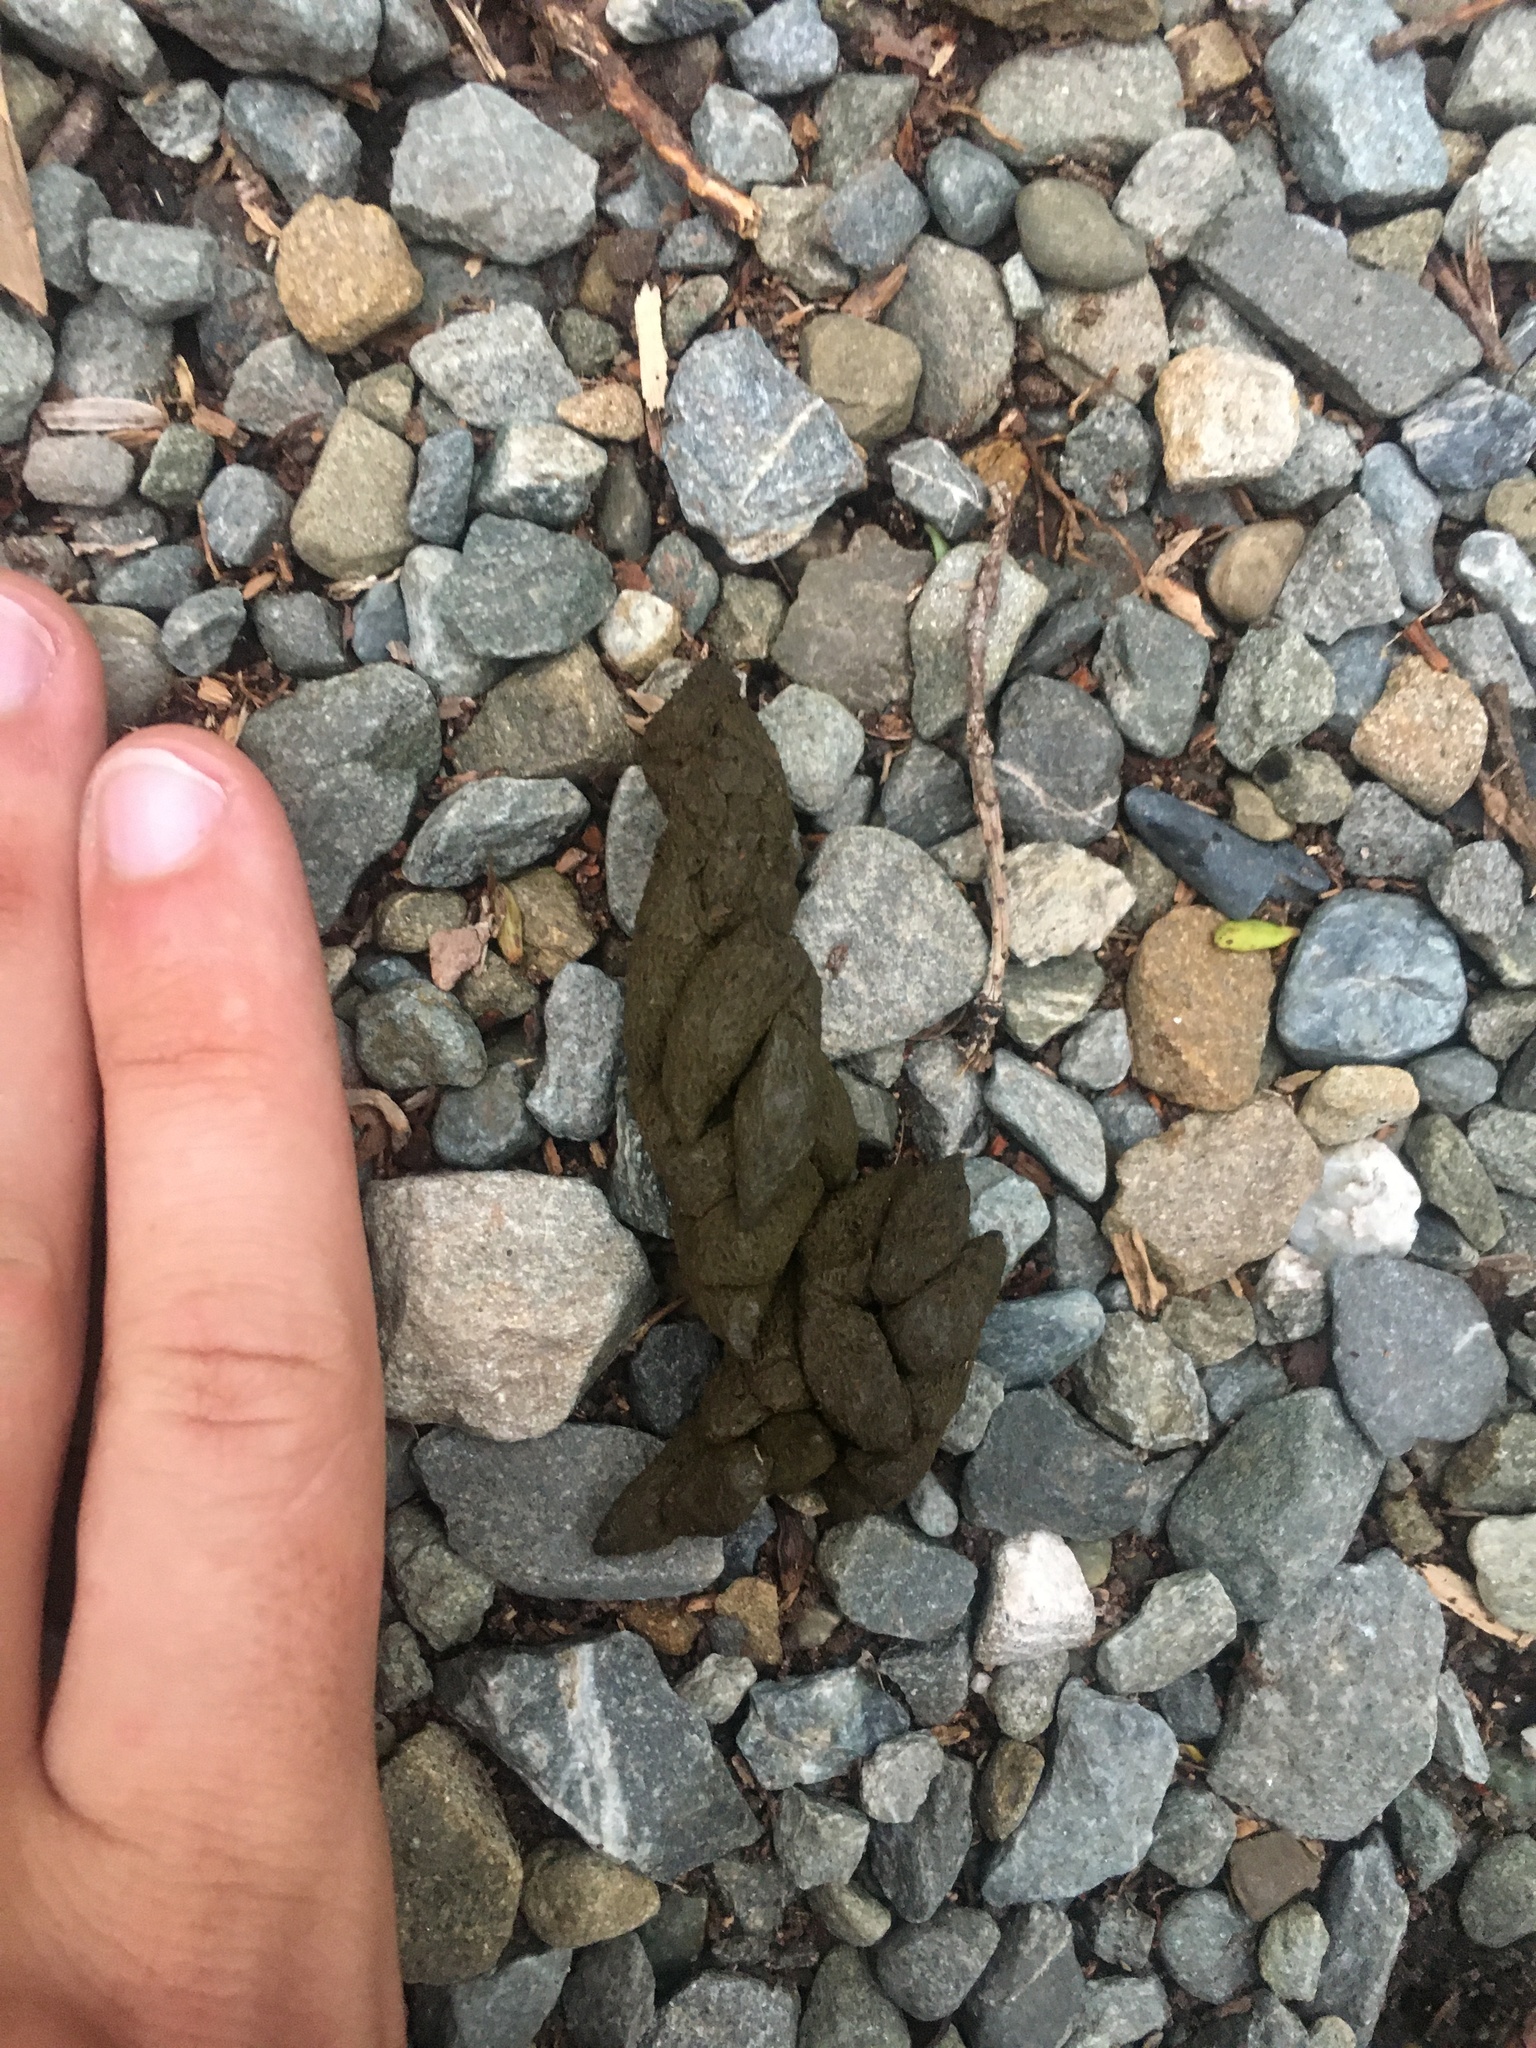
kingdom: Animalia
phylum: Chordata
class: Mammalia
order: Diprotodontia
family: Phalangeridae
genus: Trichosurus
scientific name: Trichosurus vulpecula
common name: Common brushtail
